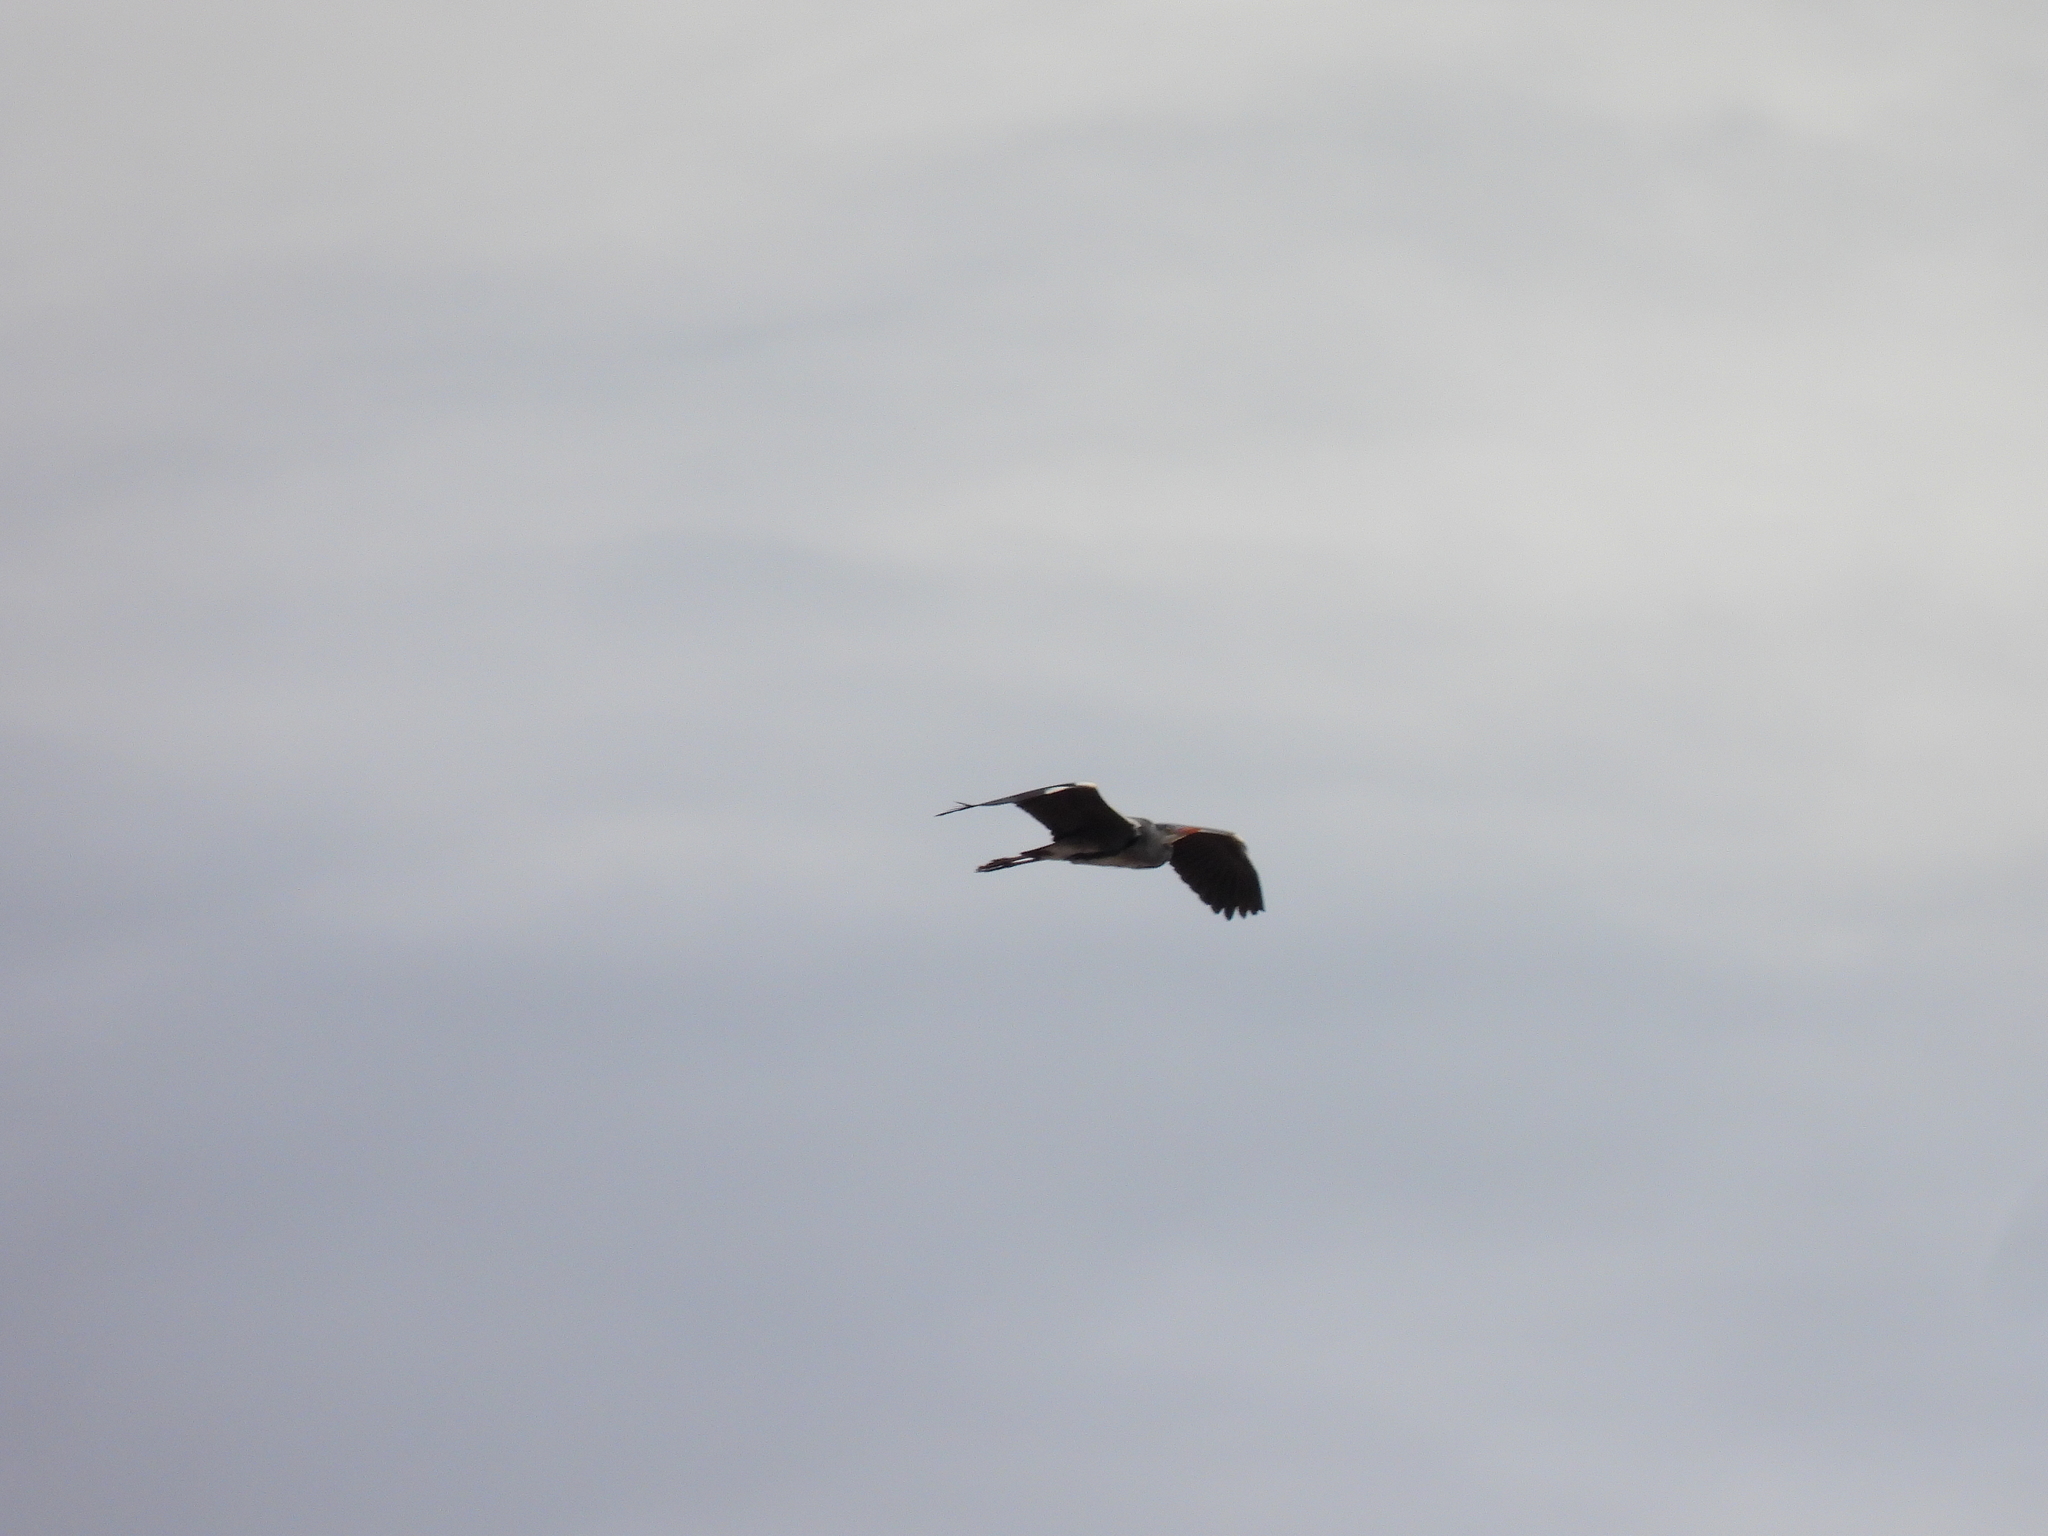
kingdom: Animalia
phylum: Chordata
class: Aves
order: Pelecaniformes
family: Ardeidae
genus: Ardea
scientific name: Ardea cinerea
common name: Grey heron
